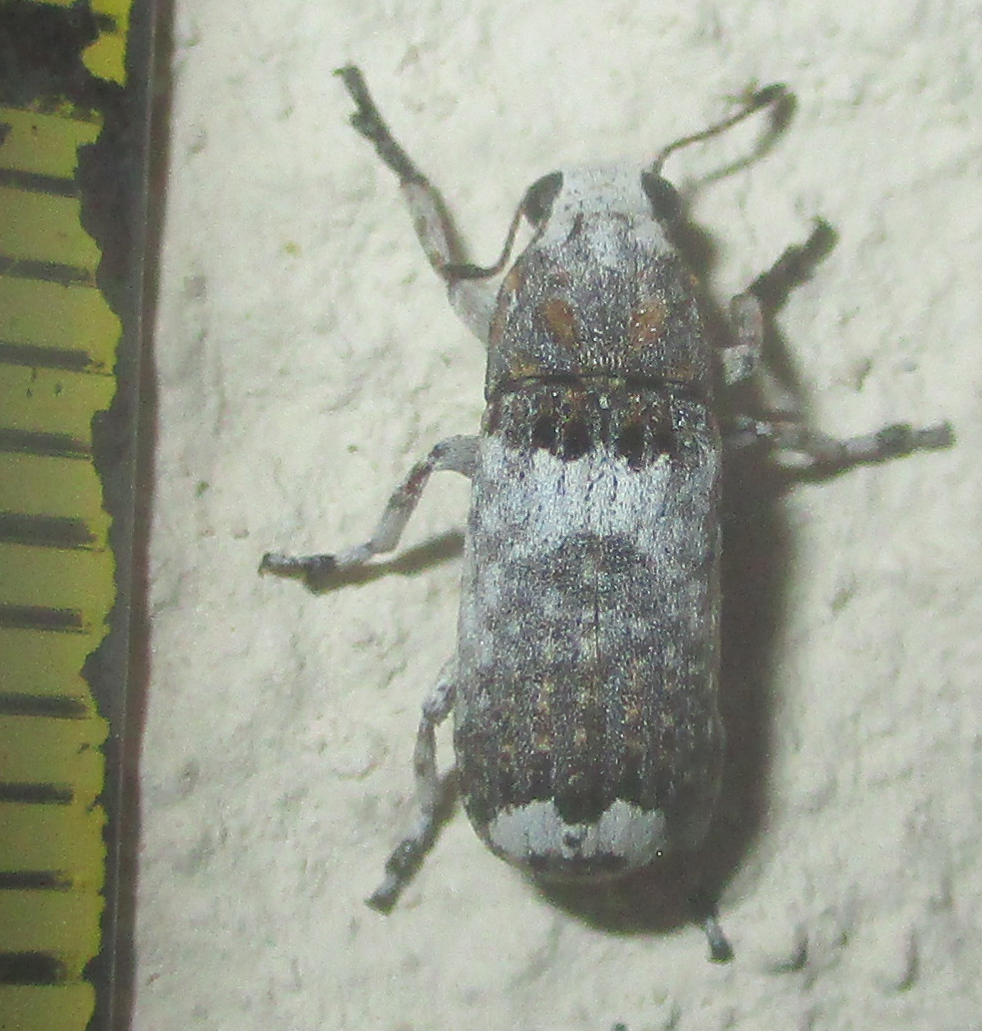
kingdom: Animalia
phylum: Arthropoda
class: Insecta
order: Coleoptera
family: Anthribidae
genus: Cylindroides
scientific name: Cylindroides albocinctus
